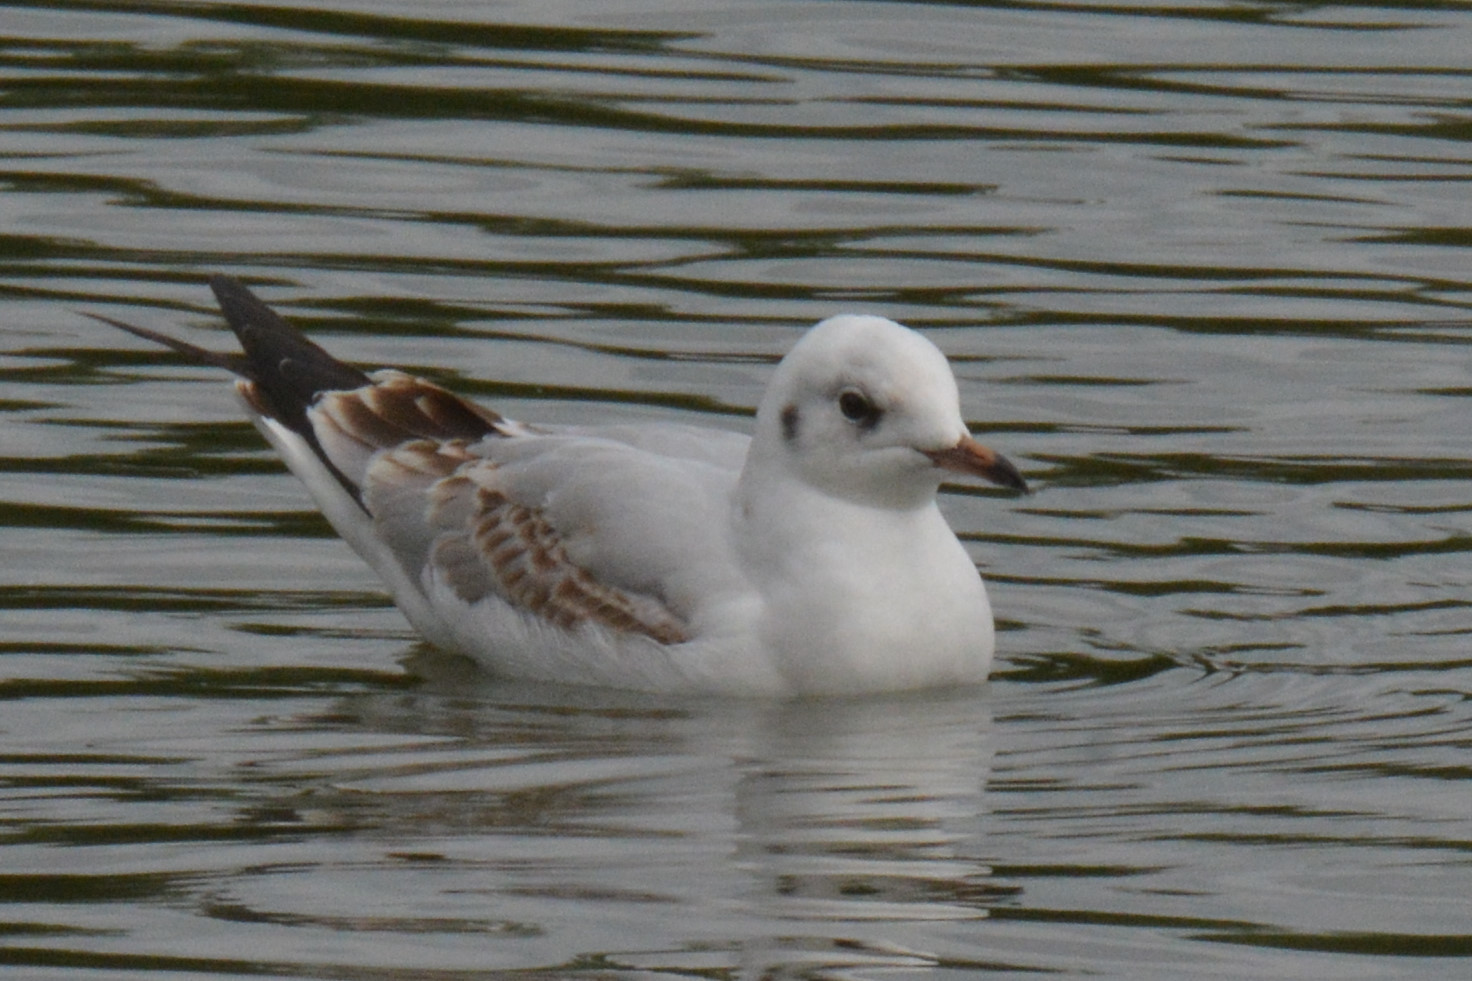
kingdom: Animalia
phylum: Chordata
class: Aves
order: Charadriiformes
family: Laridae
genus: Chroicocephalus
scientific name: Chroicocephalus ridibundus
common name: Black-headed gull
